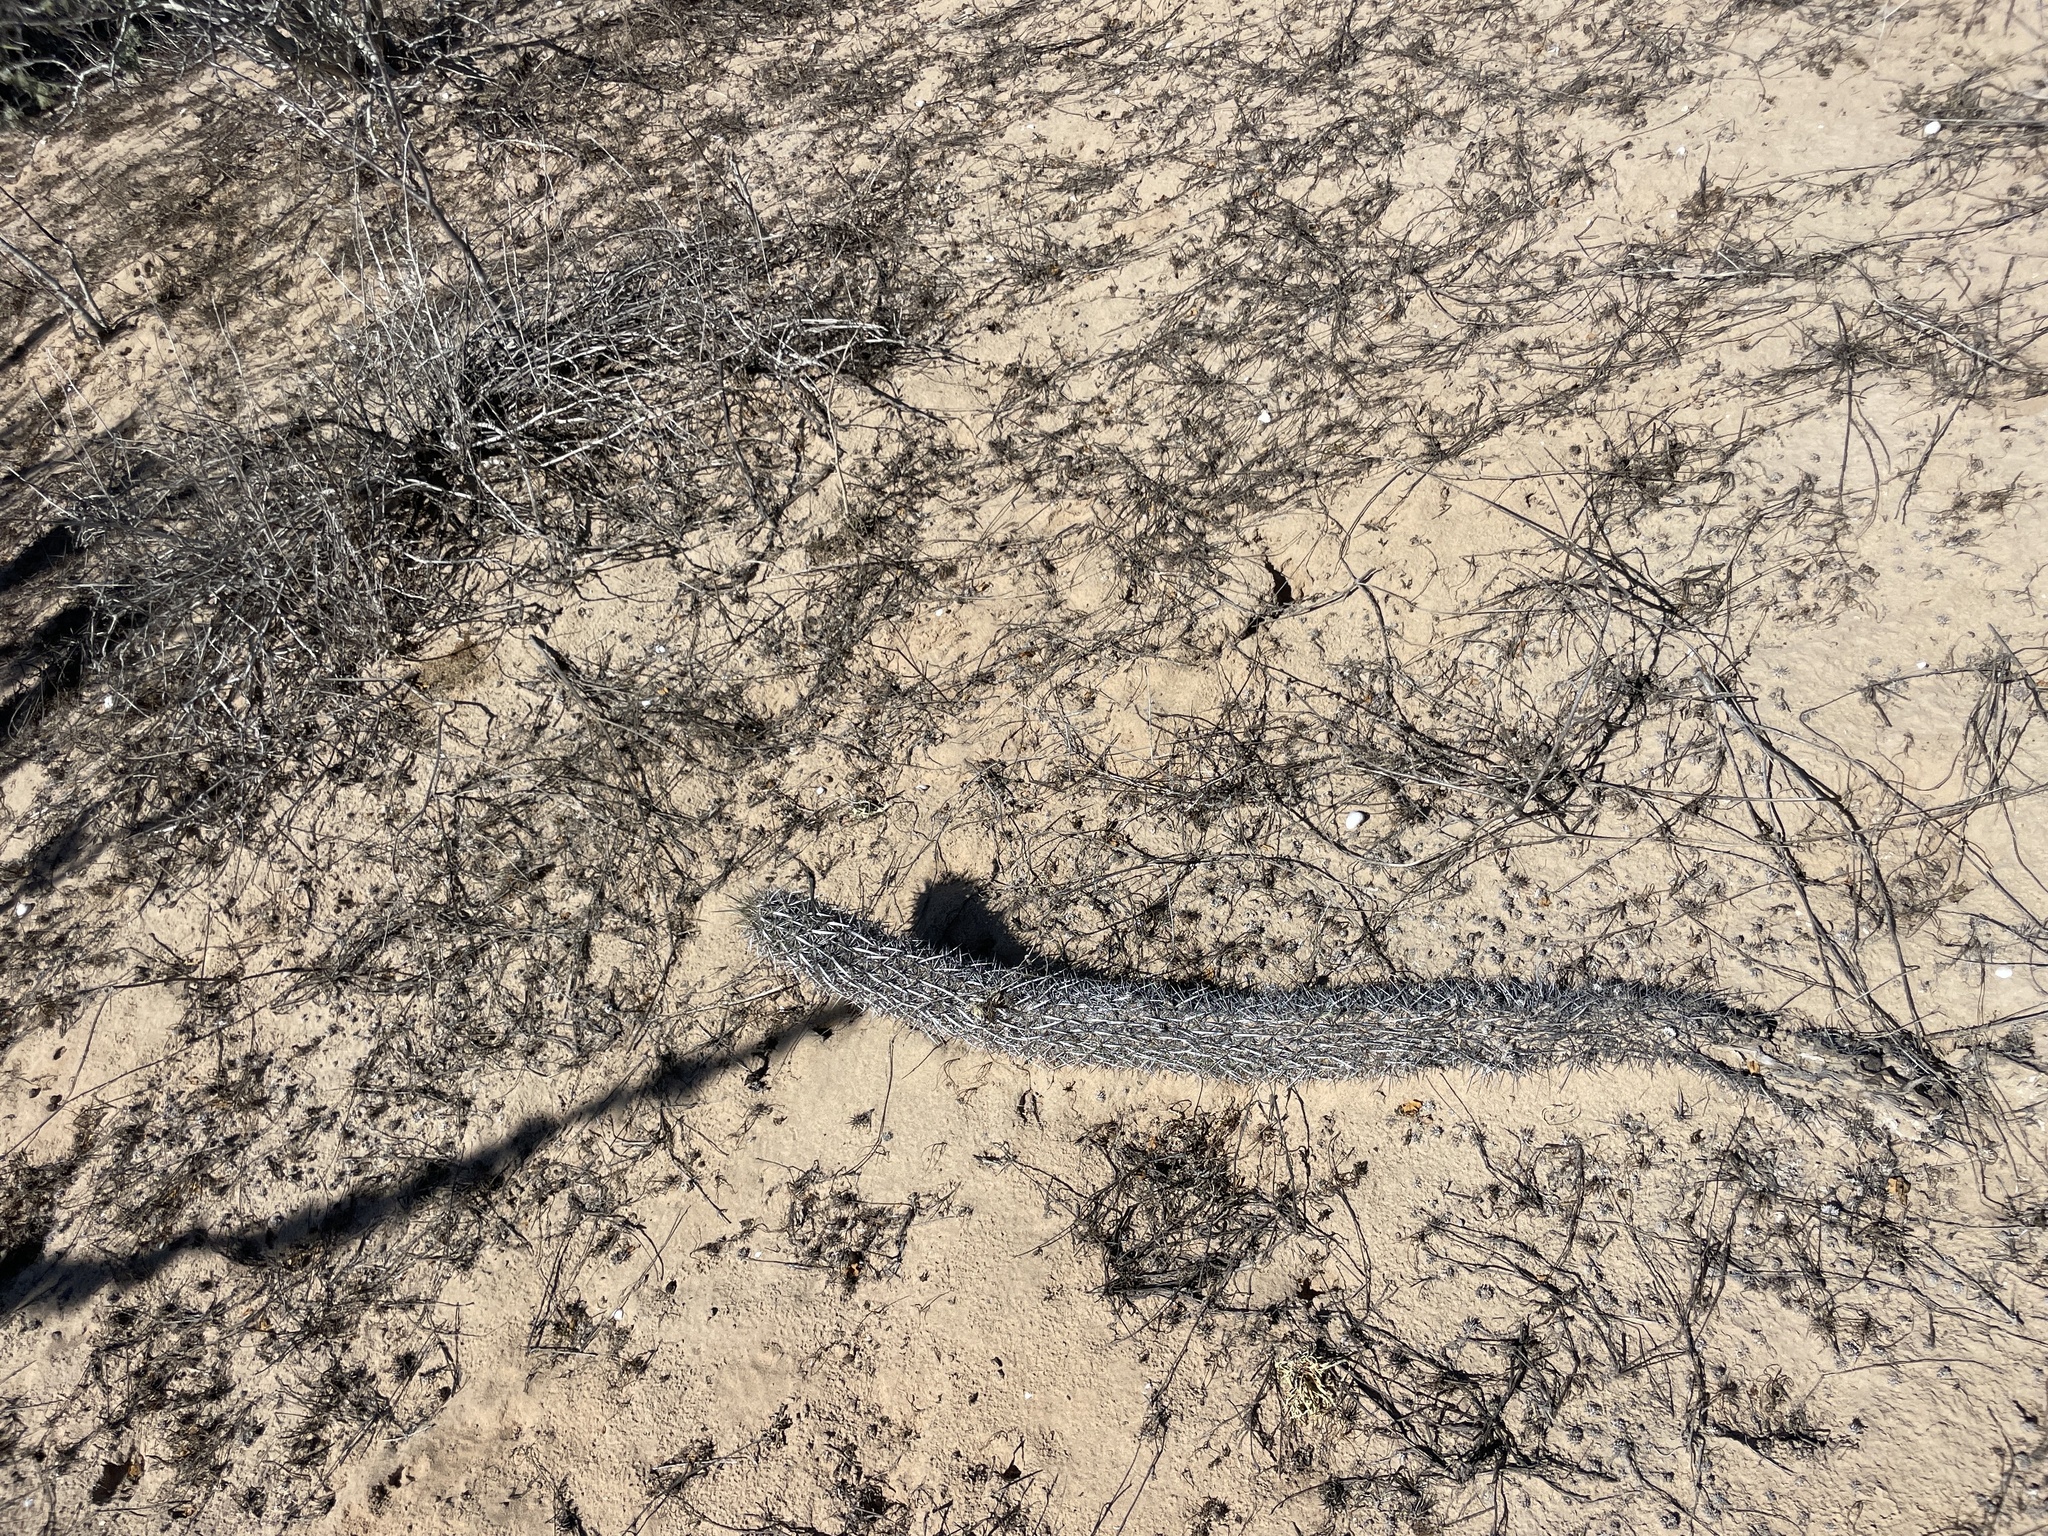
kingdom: Plantae
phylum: Tracheophyta
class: Magnoliopsida
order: Caryophyllales
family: Cactaceae
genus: Stenocereus
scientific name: Stenocereus eruca
